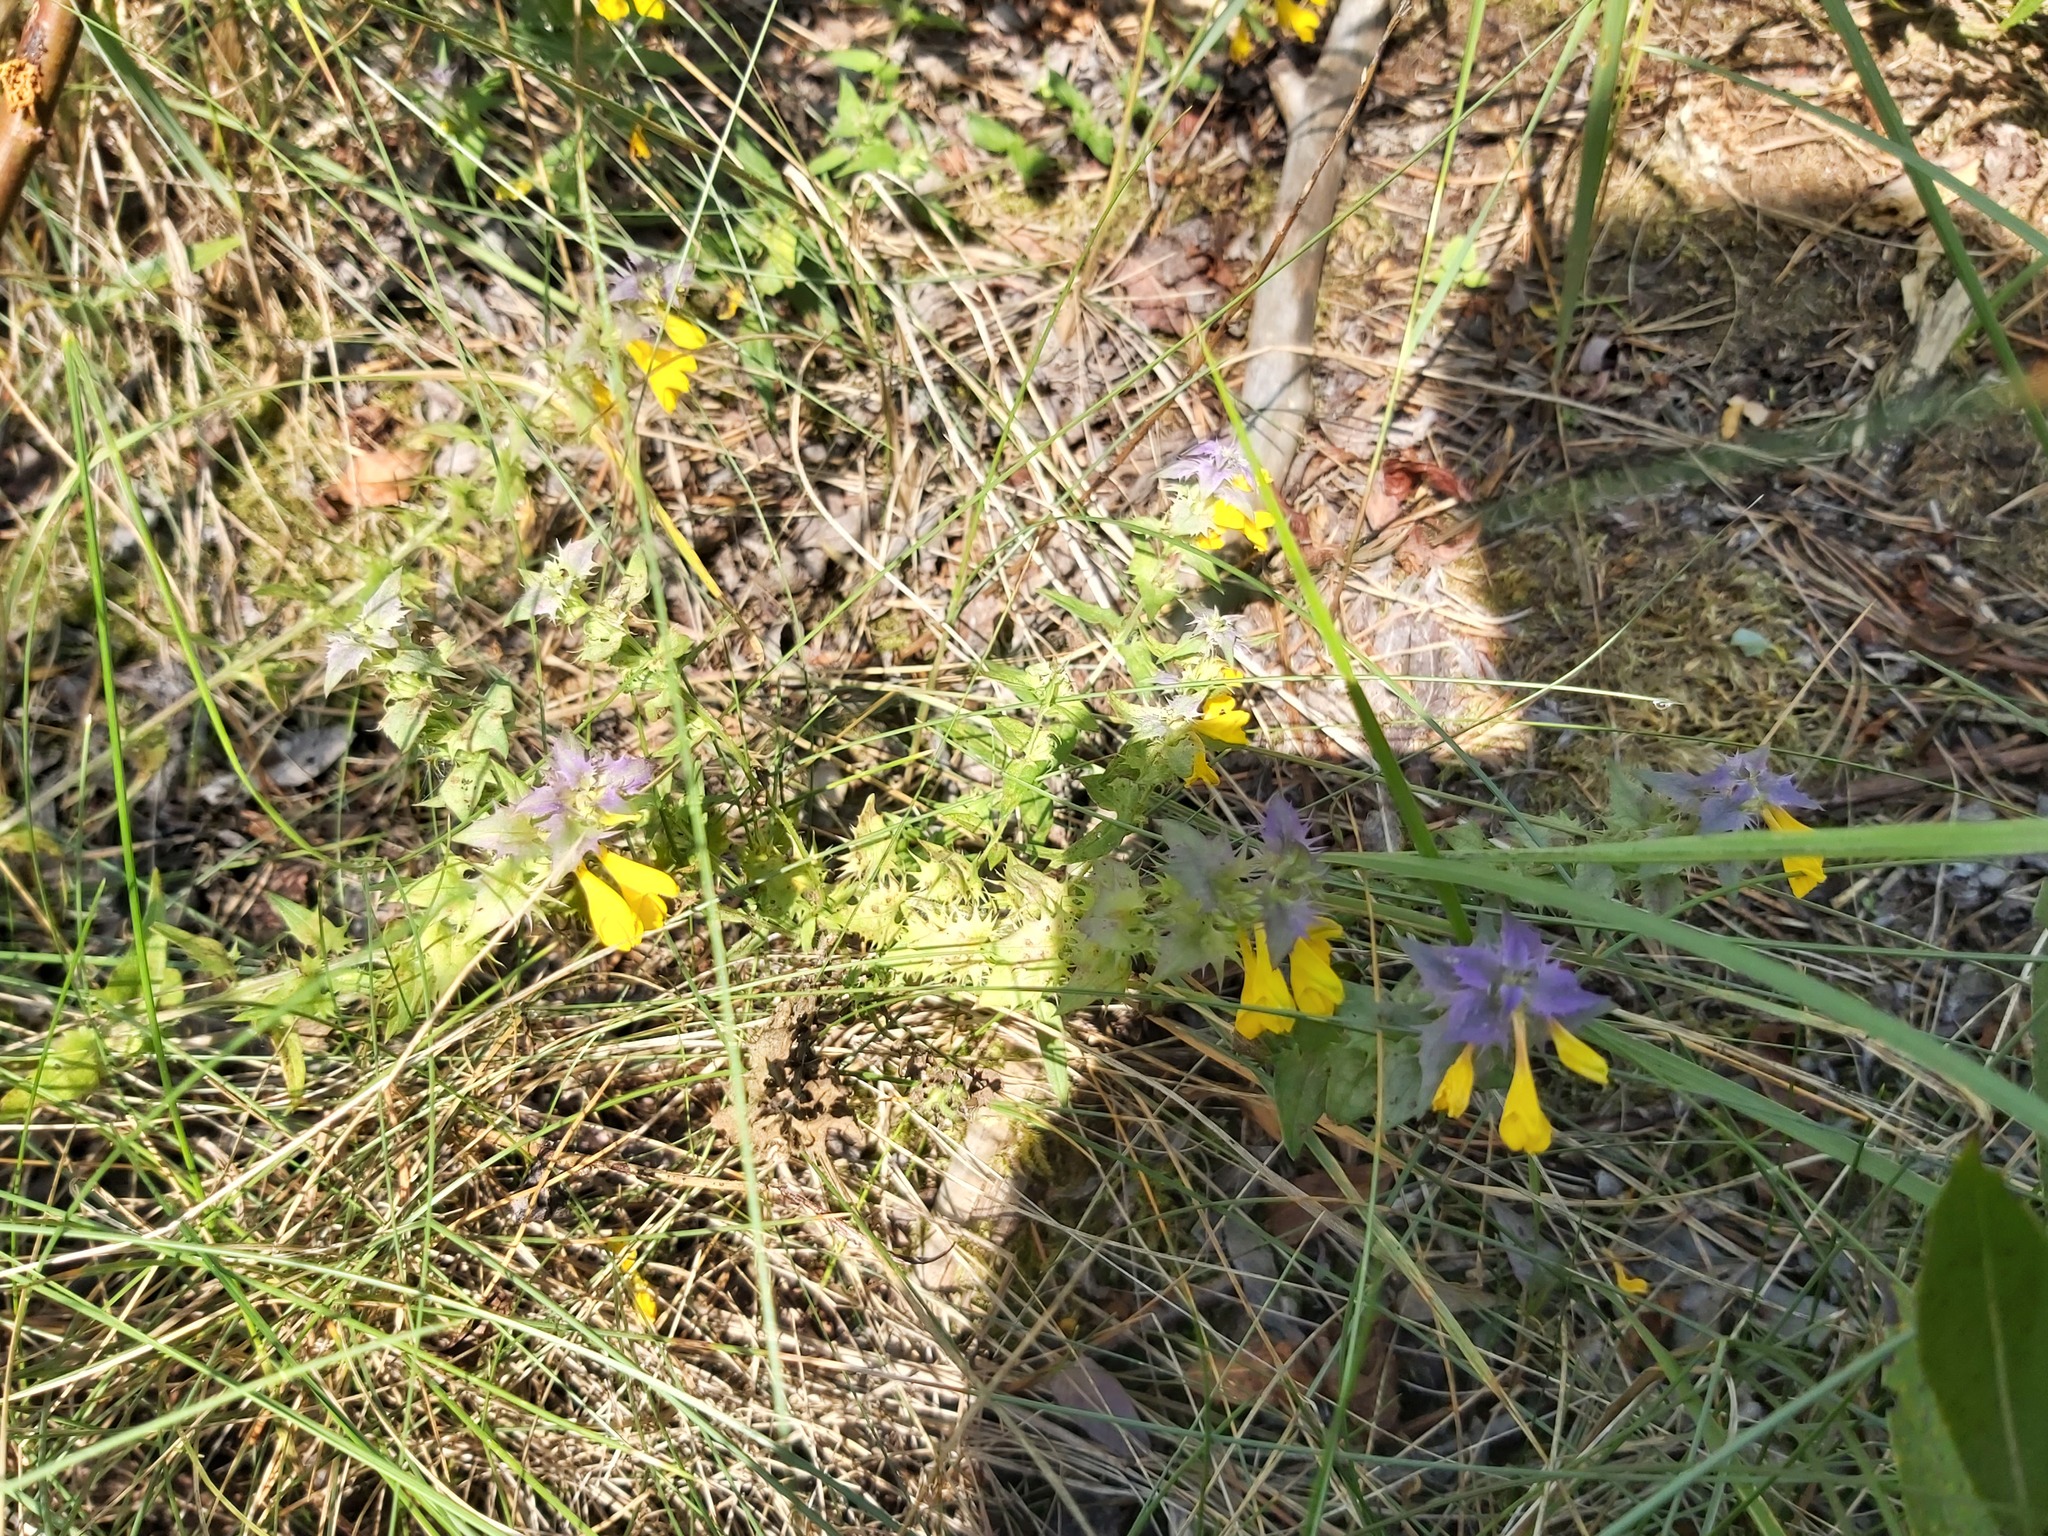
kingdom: Plantae
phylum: Tracheophyta
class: Magnoliopsida
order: Lamiales
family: Orobanchaceae
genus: Melampyrum
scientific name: Melampyrum nemorosum
